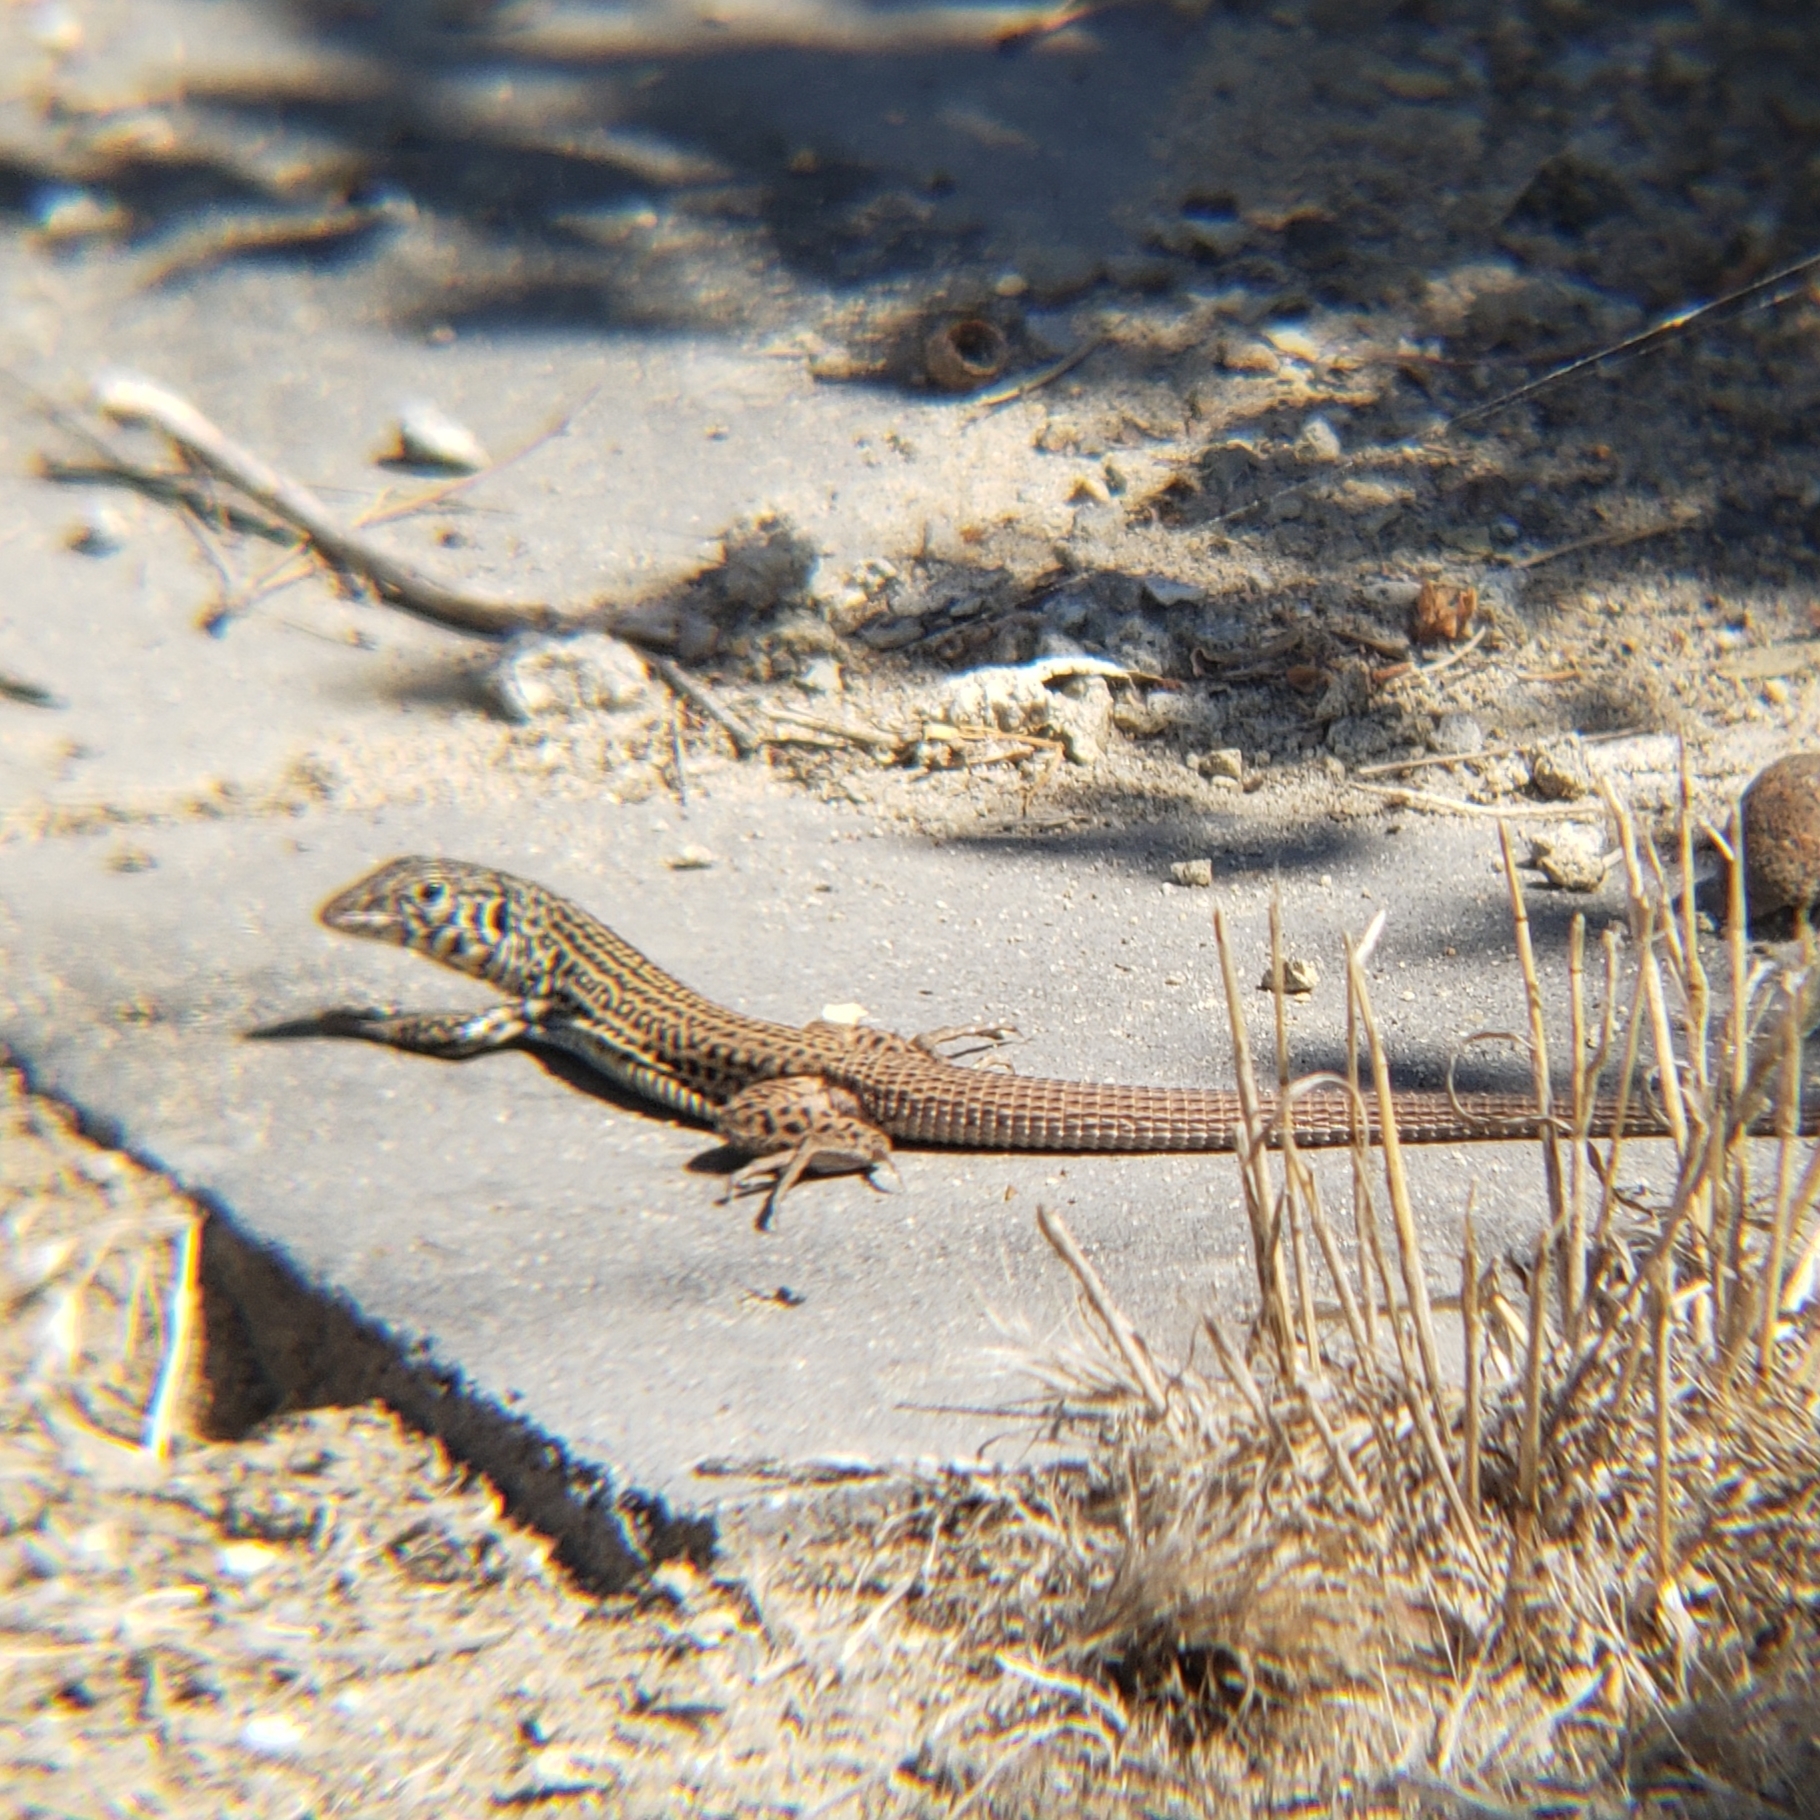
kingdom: Animalia
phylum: Chordata
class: Squamata
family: Teiidae
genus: Aspidoscelis
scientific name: Aspidoscelis tigris
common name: Tiger whiptail
